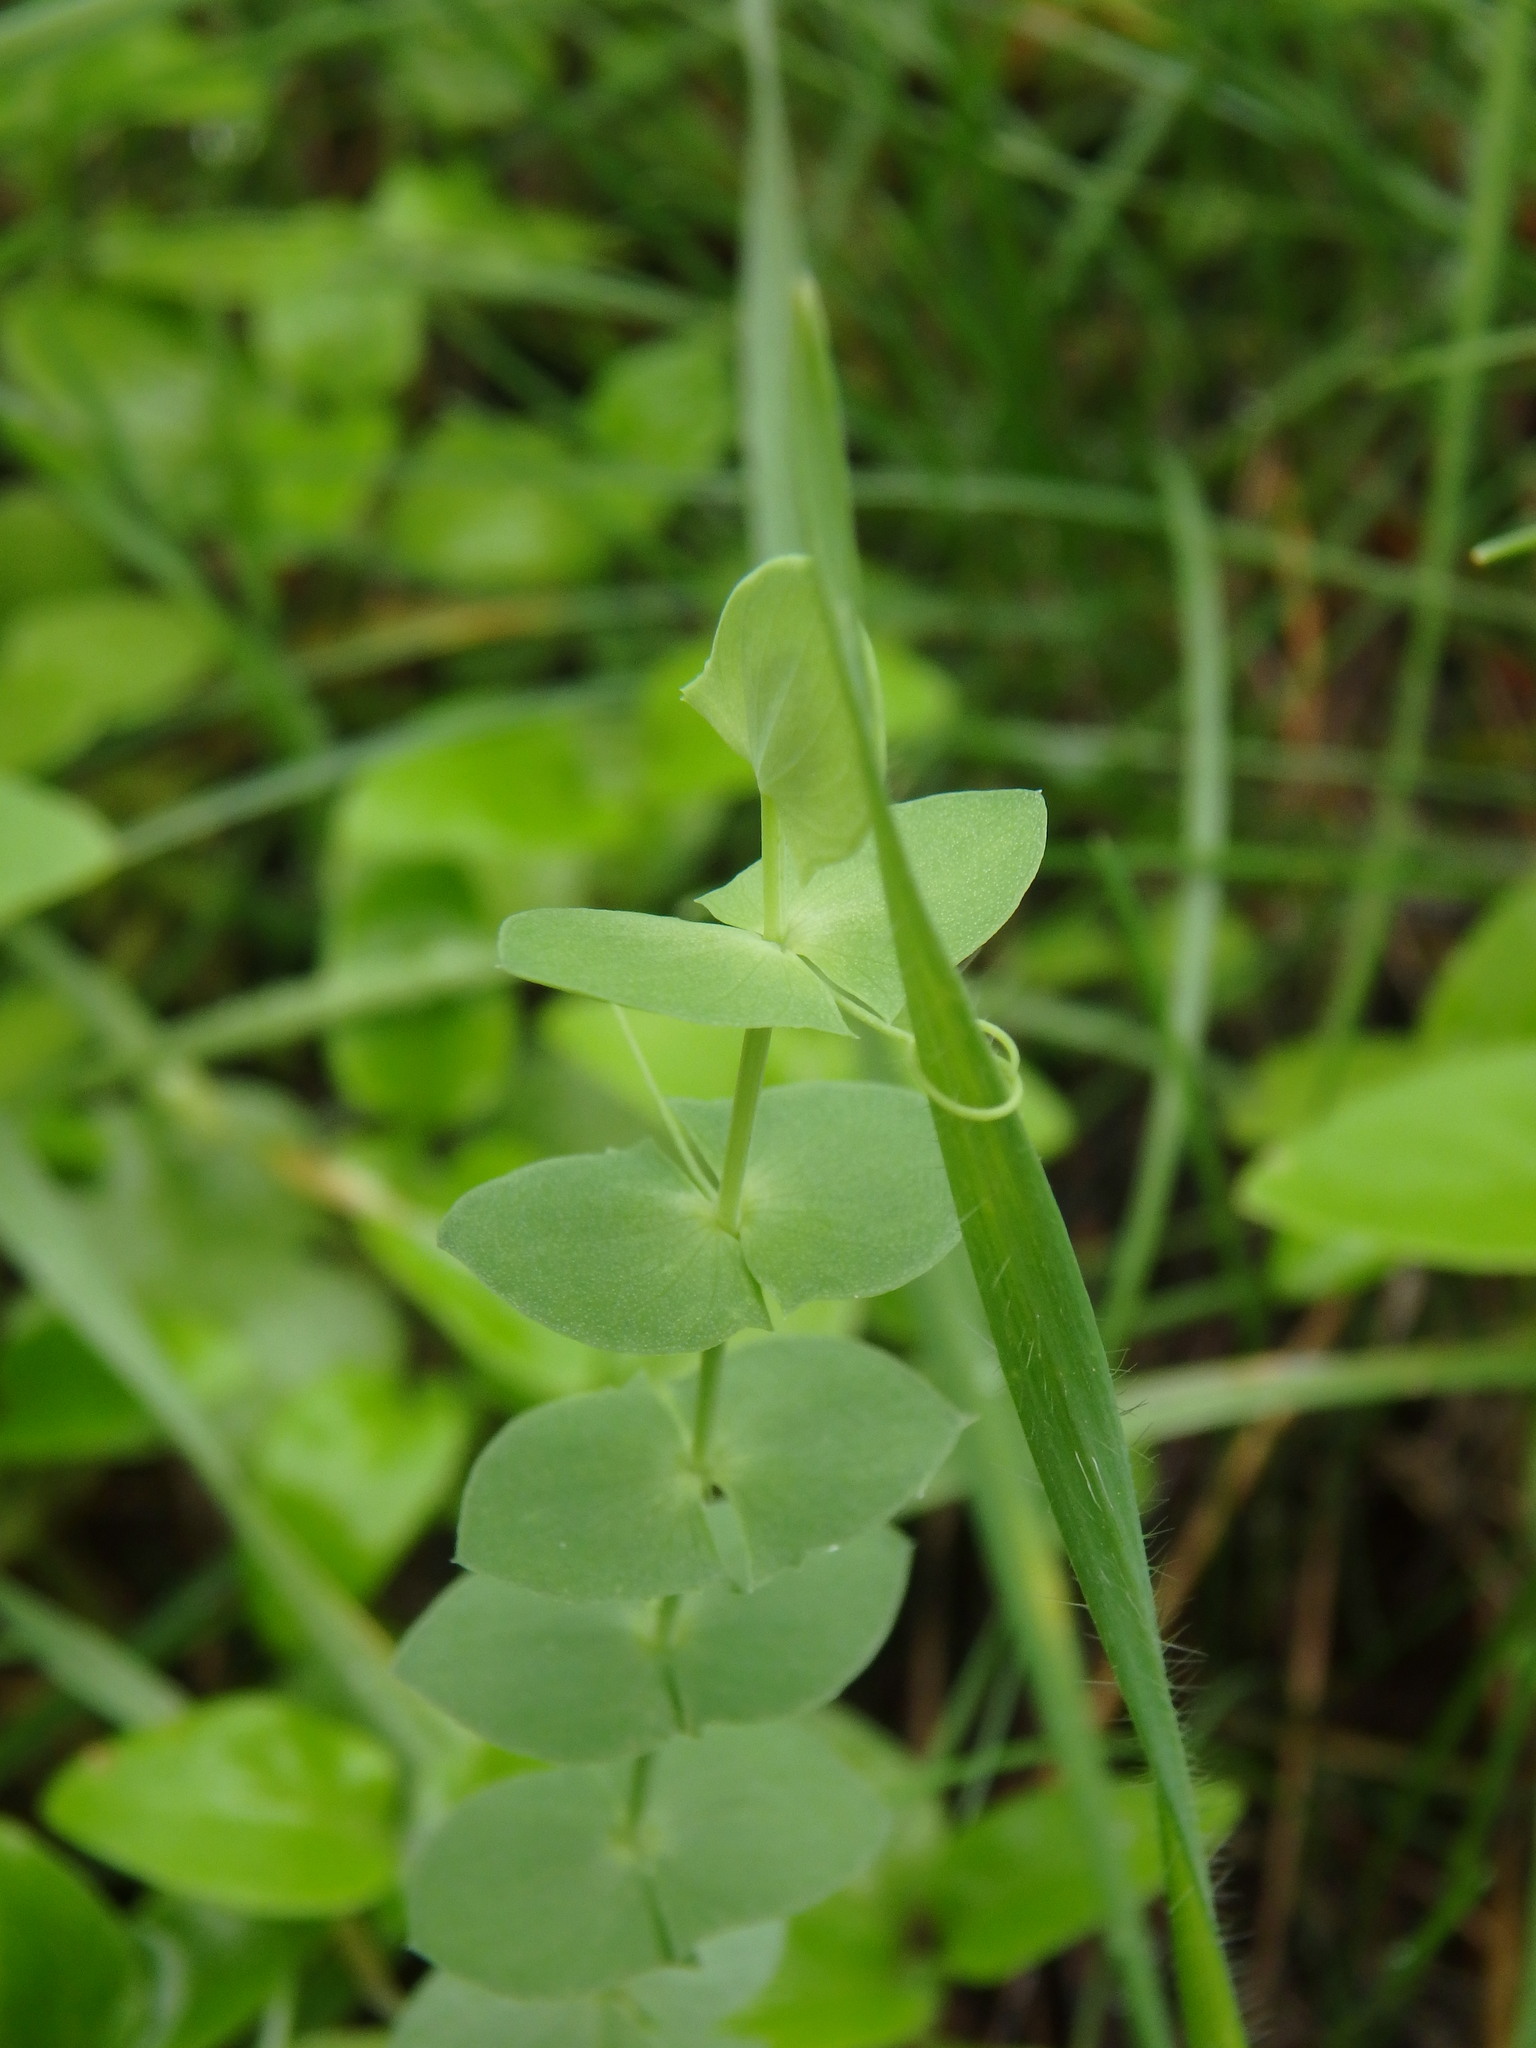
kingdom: Plantae
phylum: Tracheophyta
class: Magnoliopsida
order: Fabales
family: Fabaceae
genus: Lathyrus
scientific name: Lathyrus aphaca
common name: Yellow vetchling
